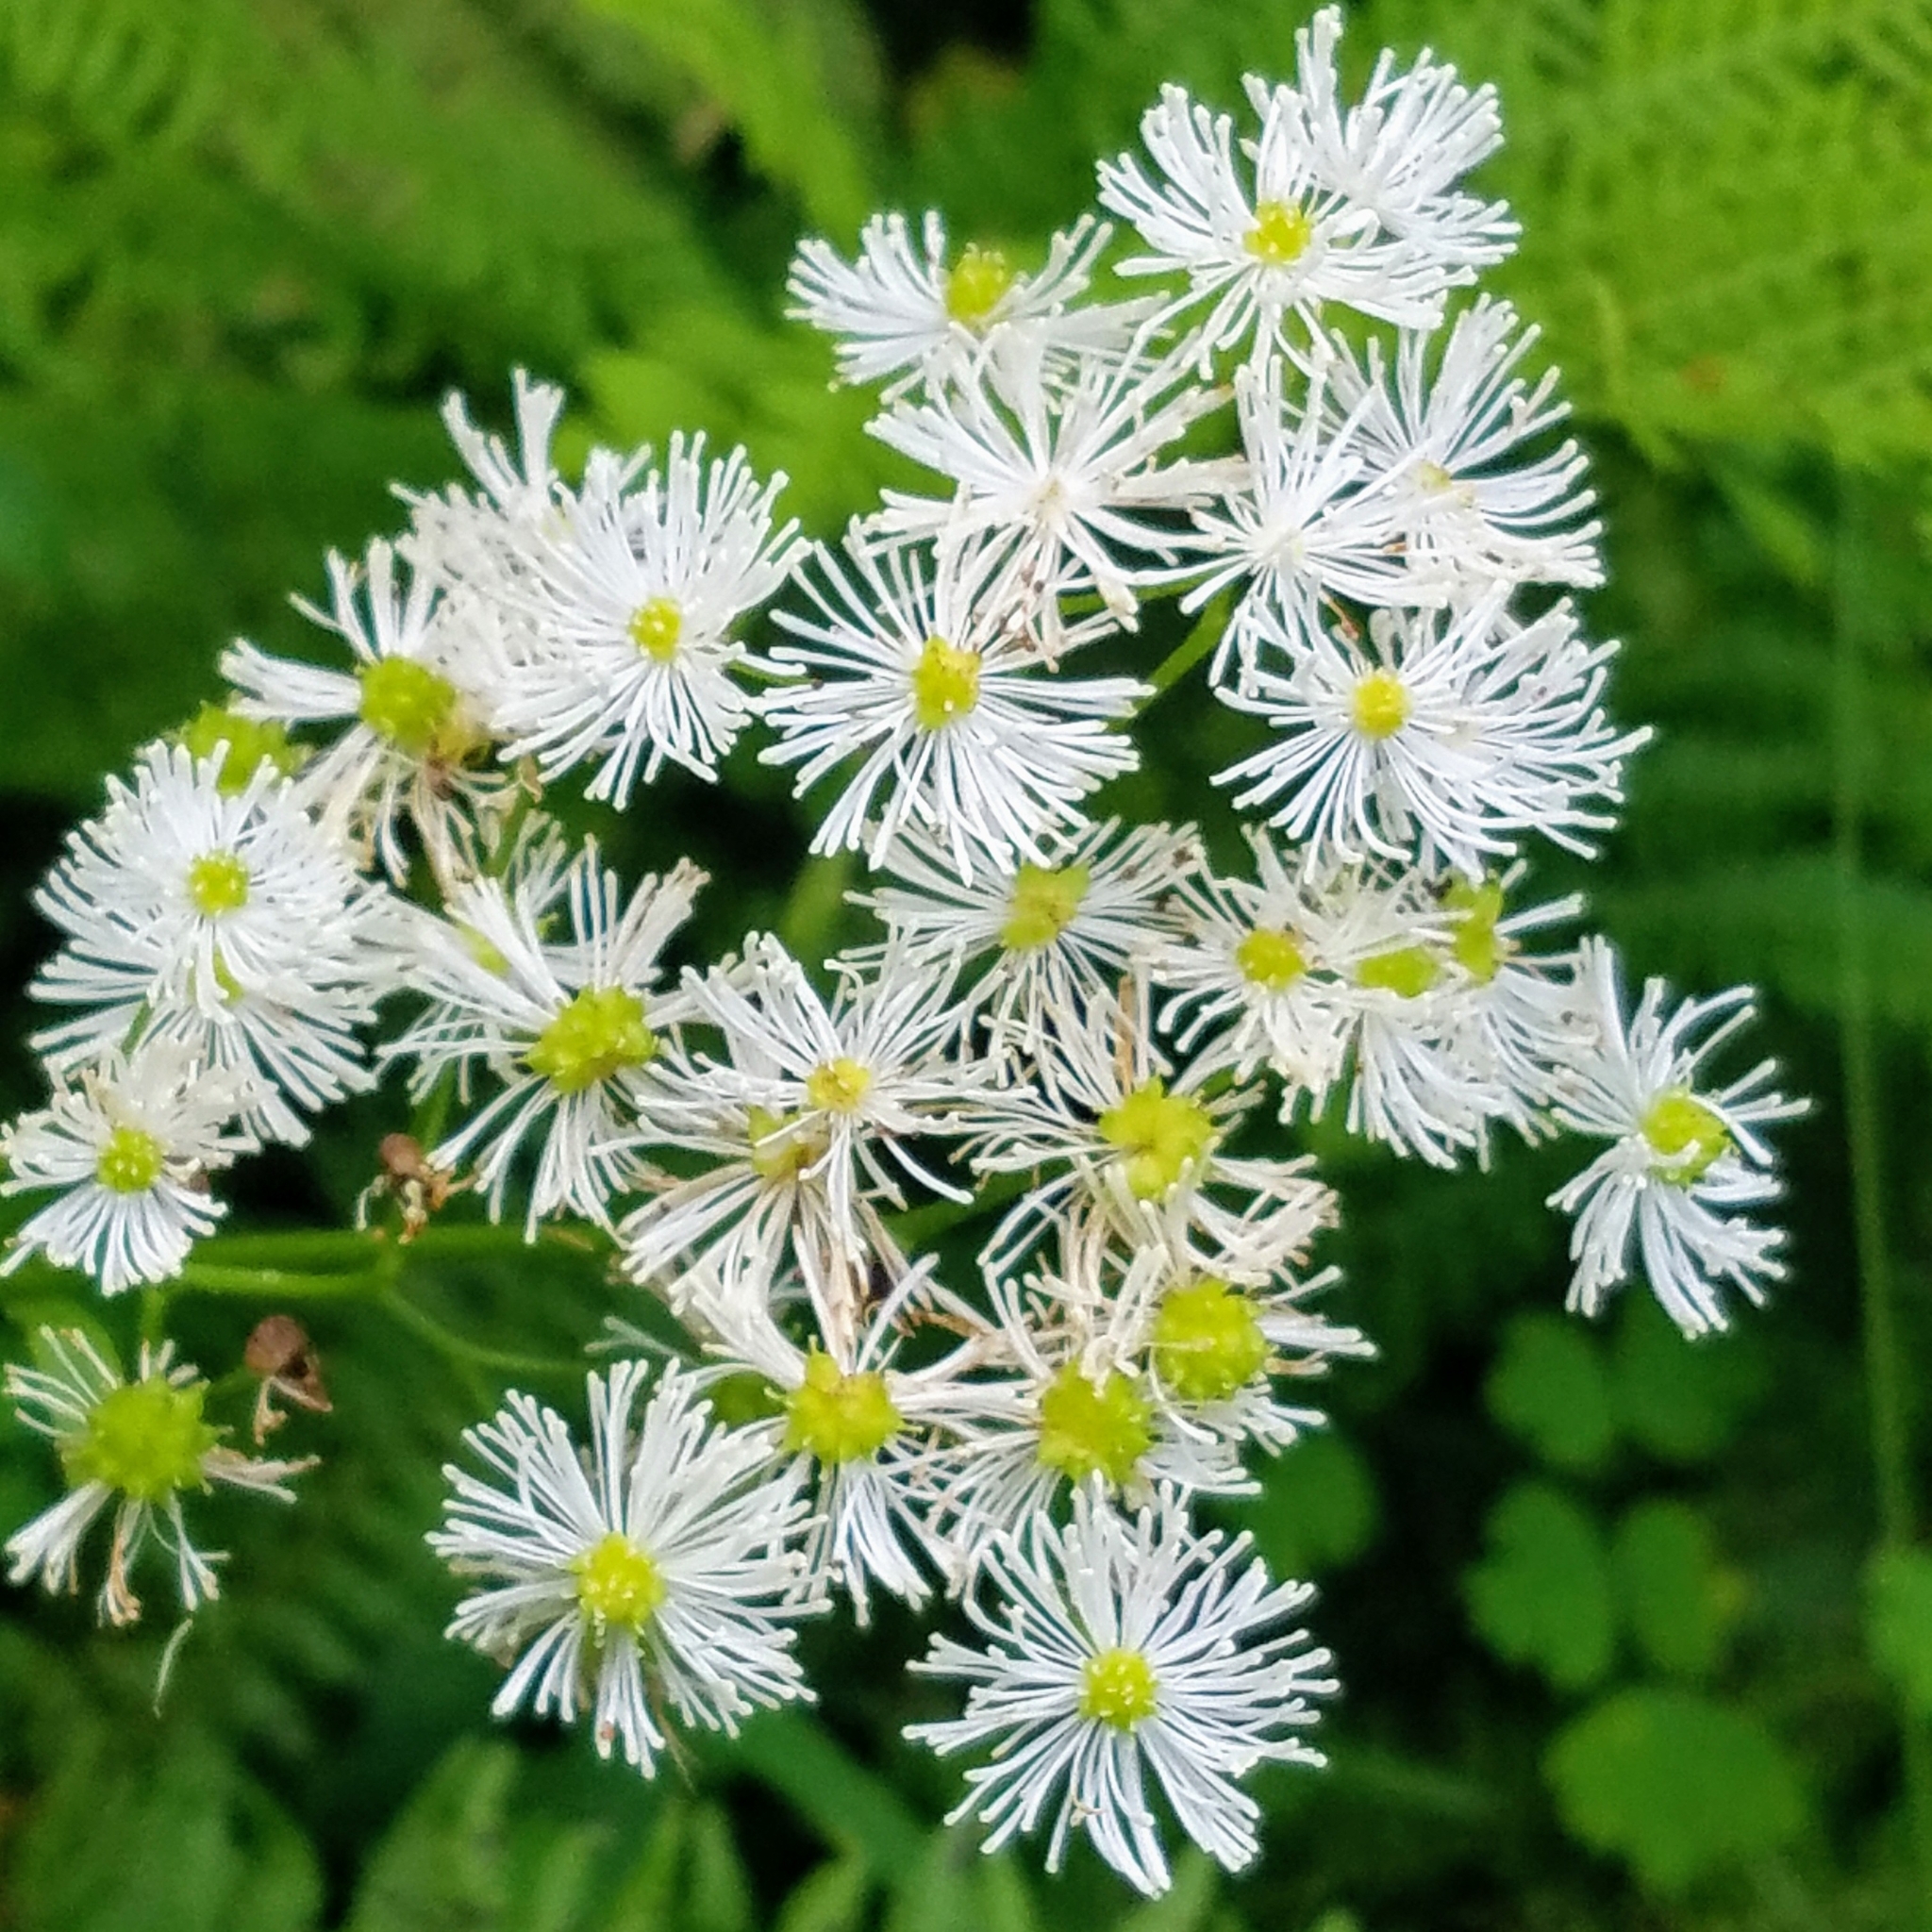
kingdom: Plantae
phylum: Tracheophyta
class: Magnoliopsida
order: Ranunculales
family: Ranunculaceae
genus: Trautvetteria
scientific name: Trautvetteria carolinensis
